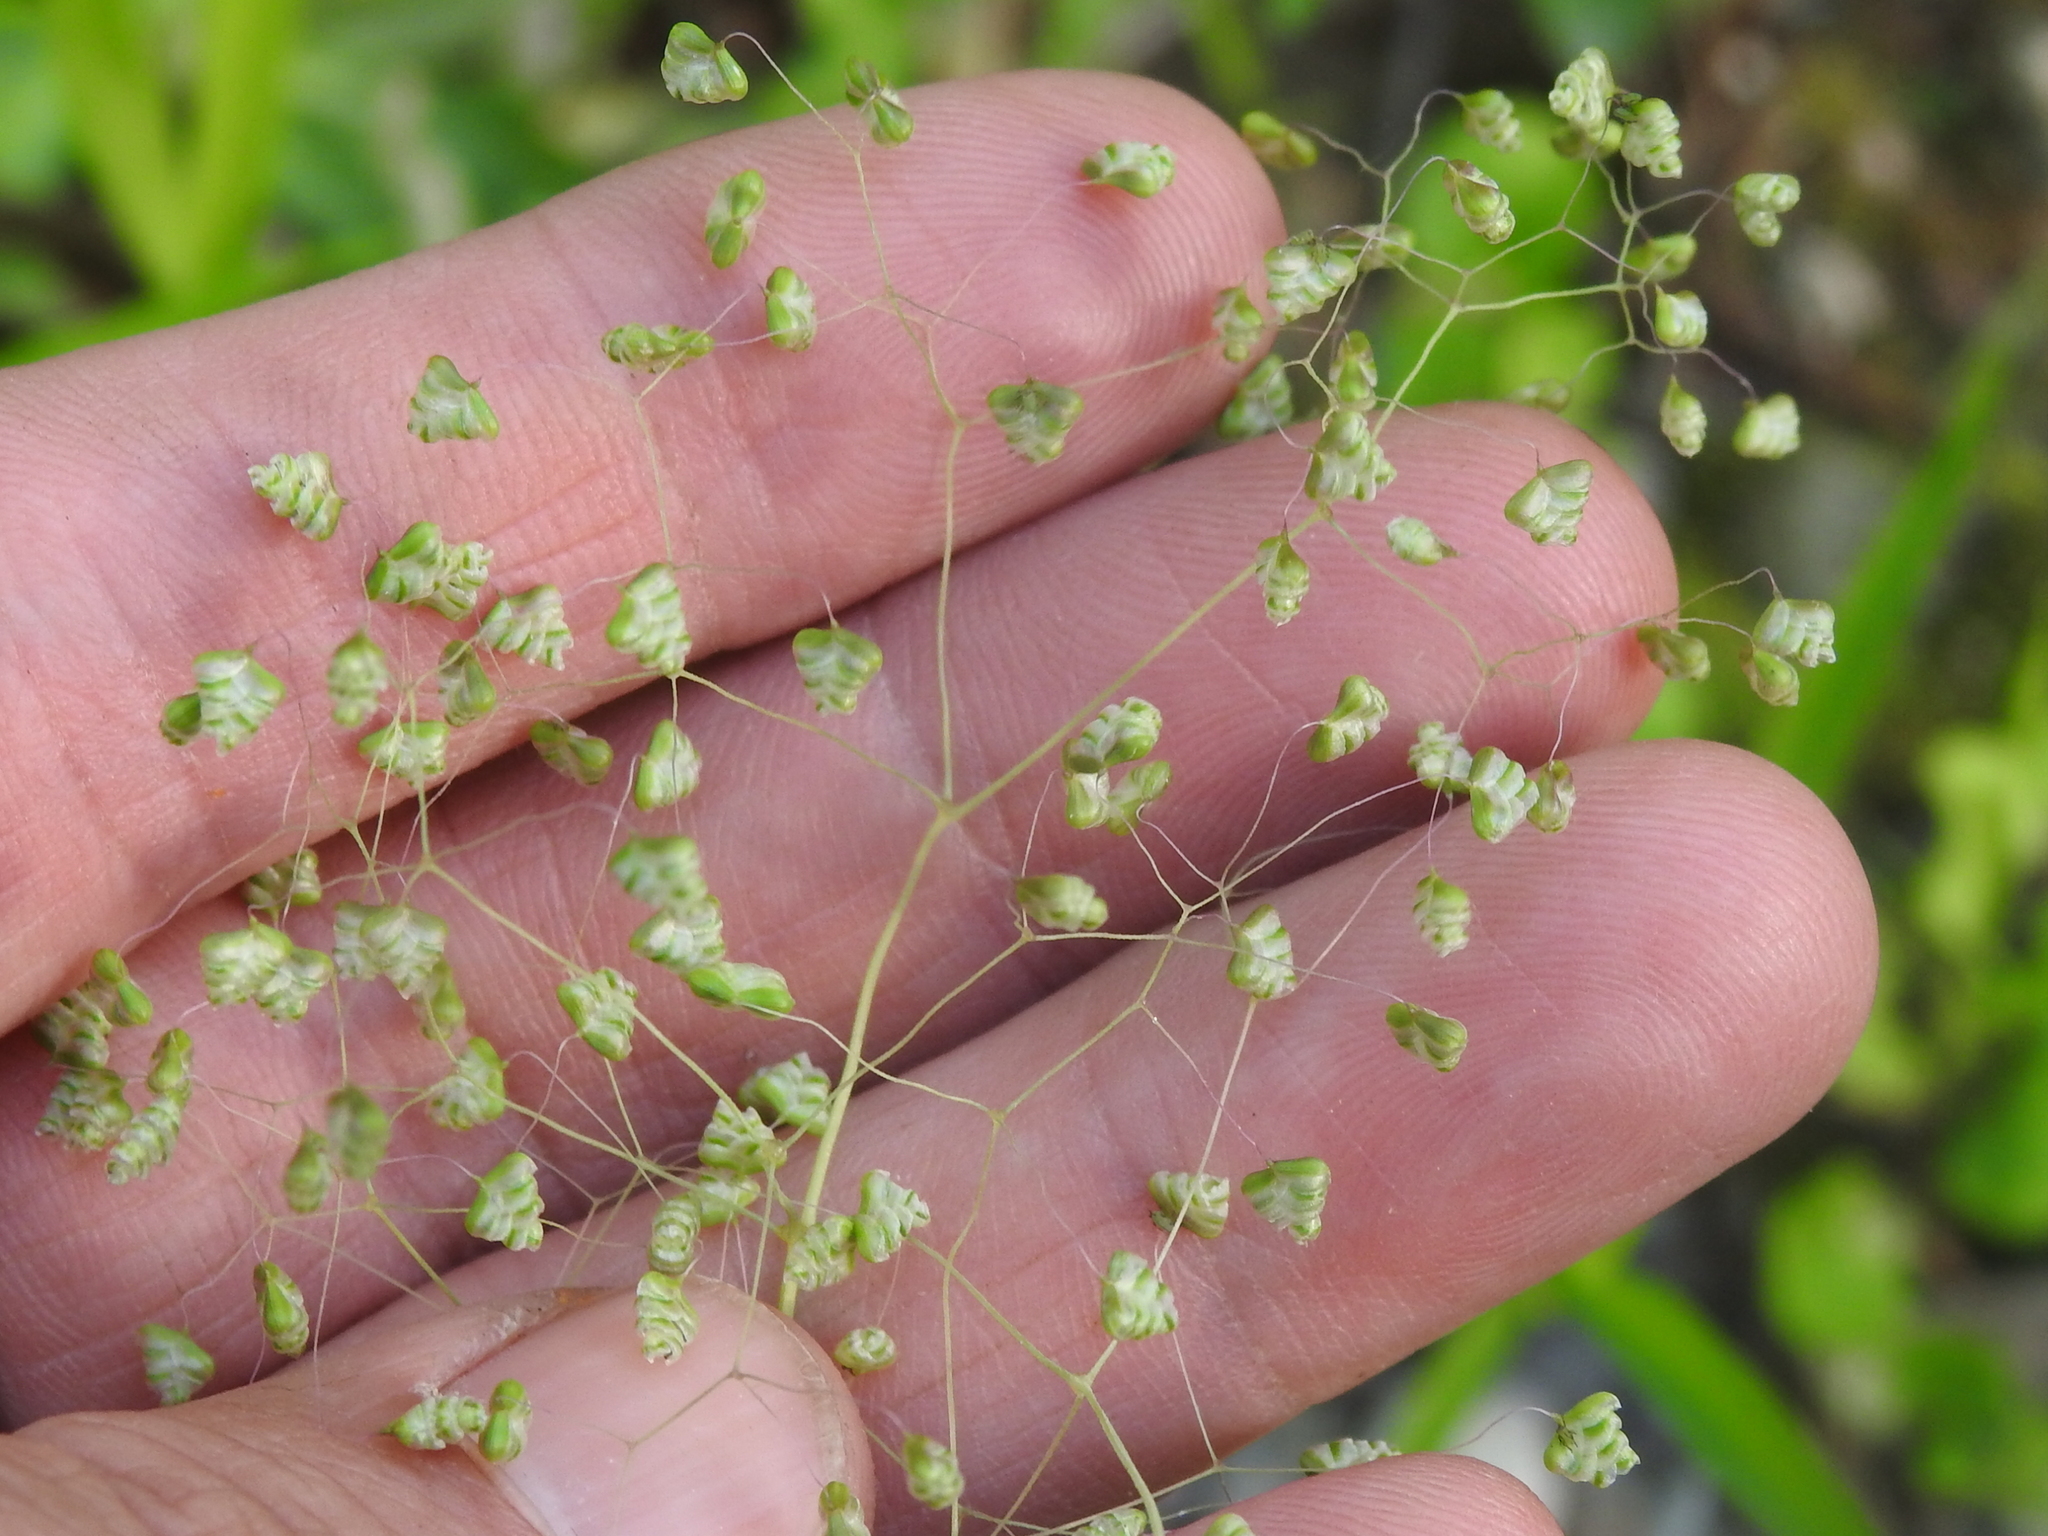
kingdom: Plantae
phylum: Tracheophyta
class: Liliopsida
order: Poales
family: Poaceae
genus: Briza
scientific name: Briza minor
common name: Lesser quaking-grass
